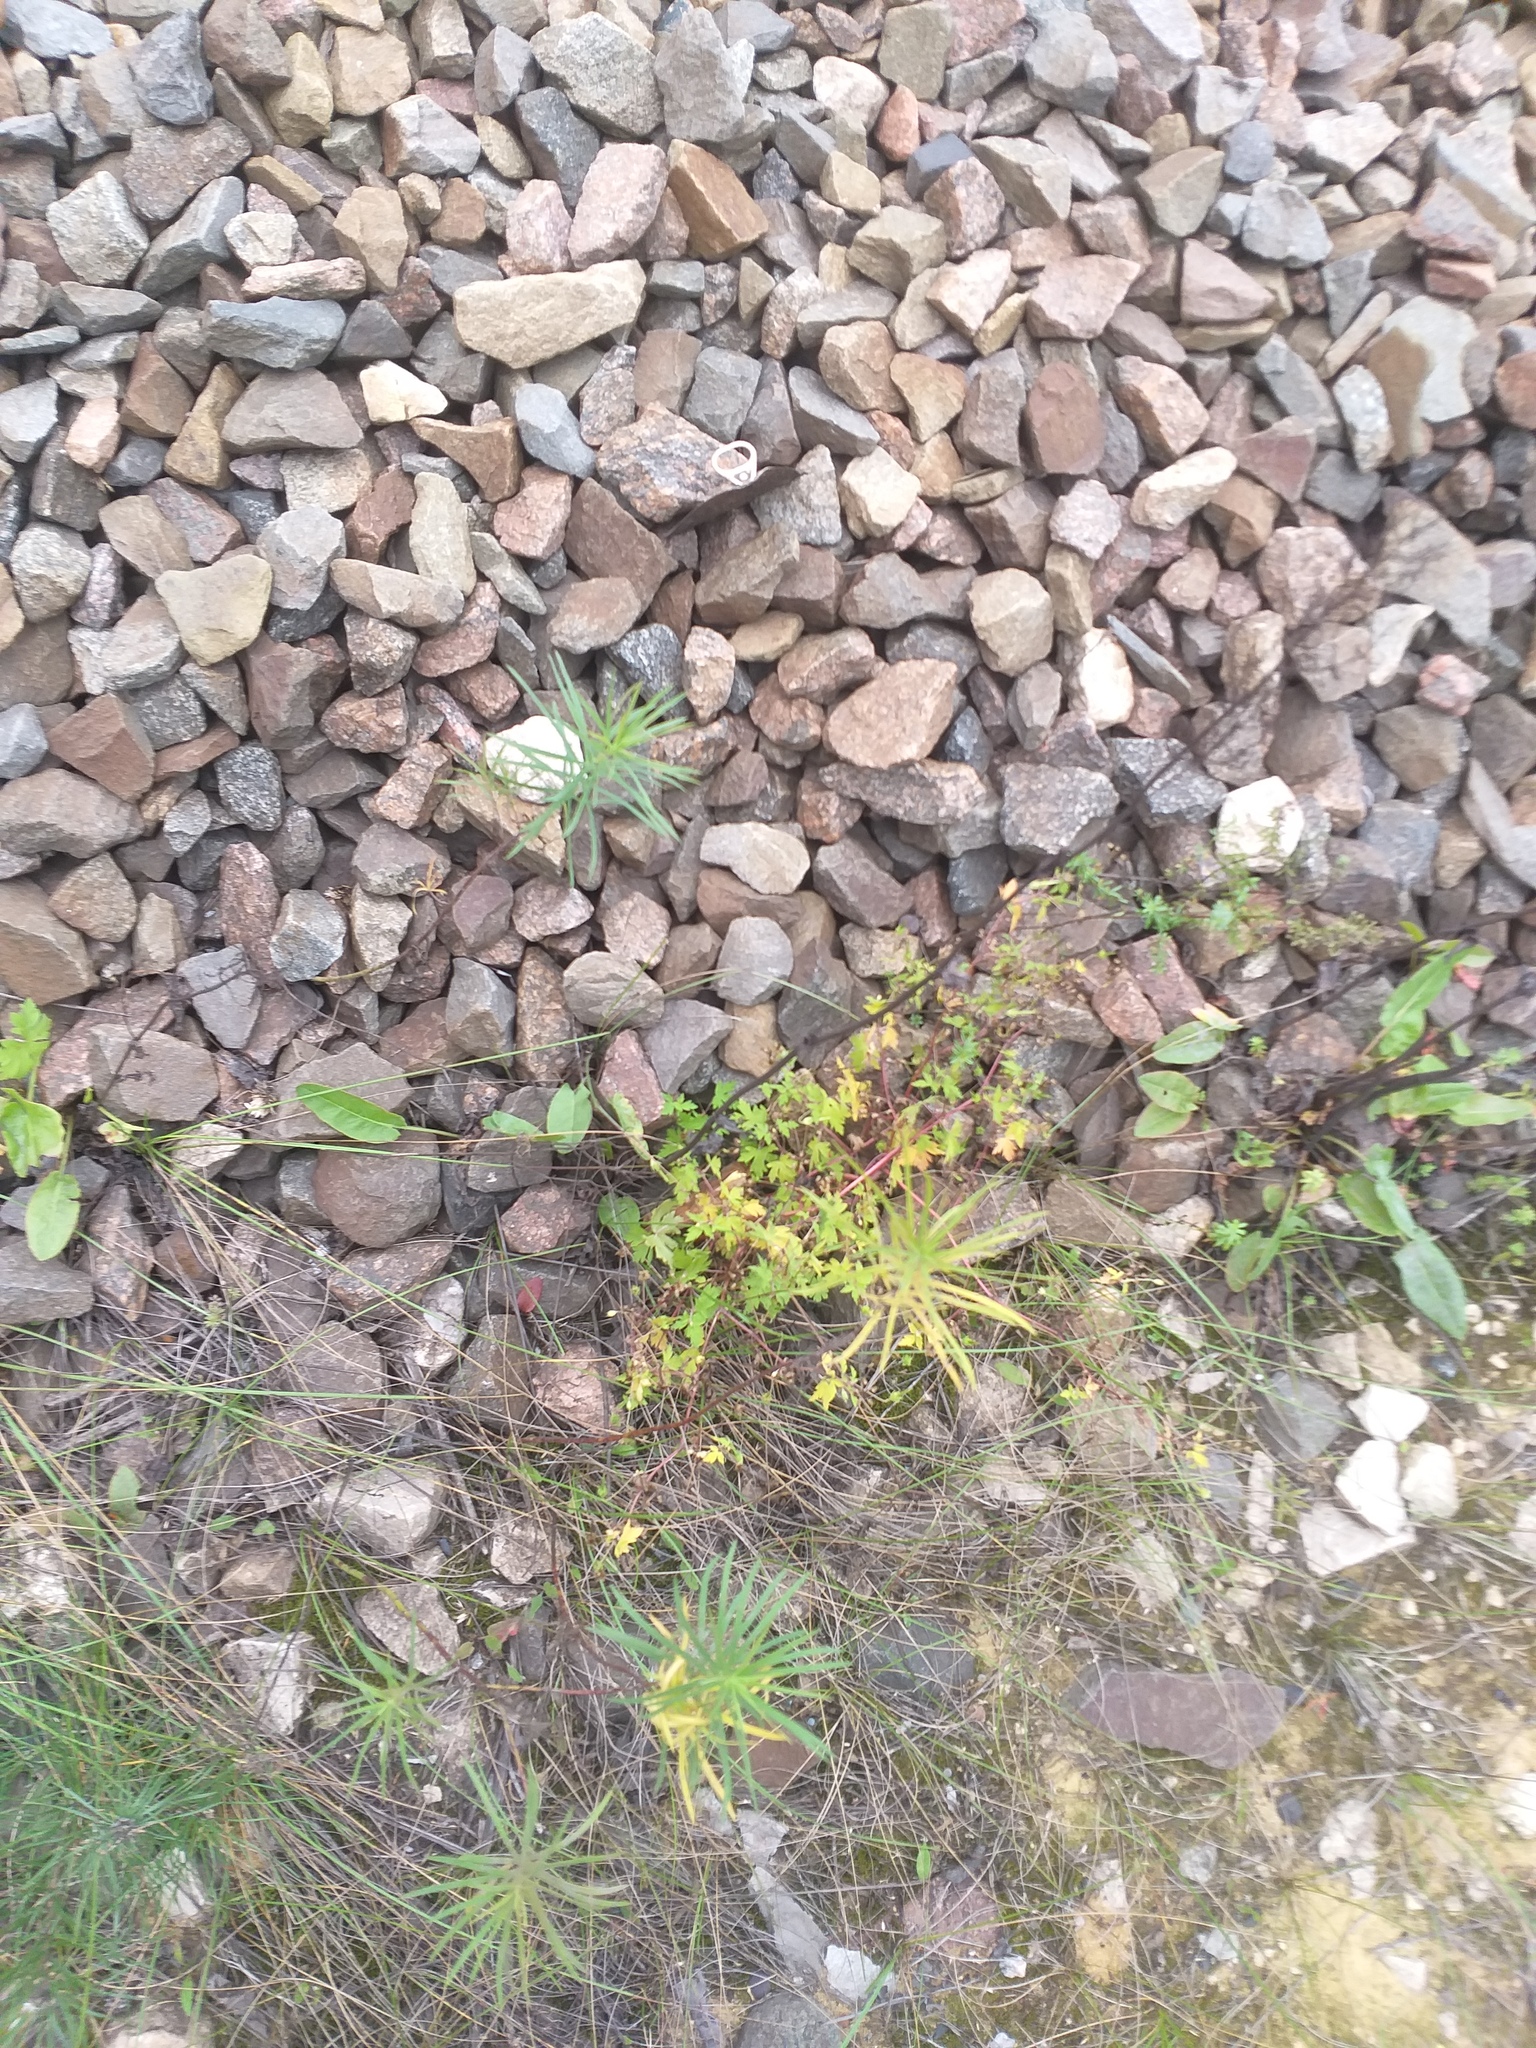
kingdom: Plantae
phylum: Tracheophyta
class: Magnoliopsida
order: Geraniales
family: Geraniaceae
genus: Geranium
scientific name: Geranium sibiricum
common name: Siberian crane's-bill
